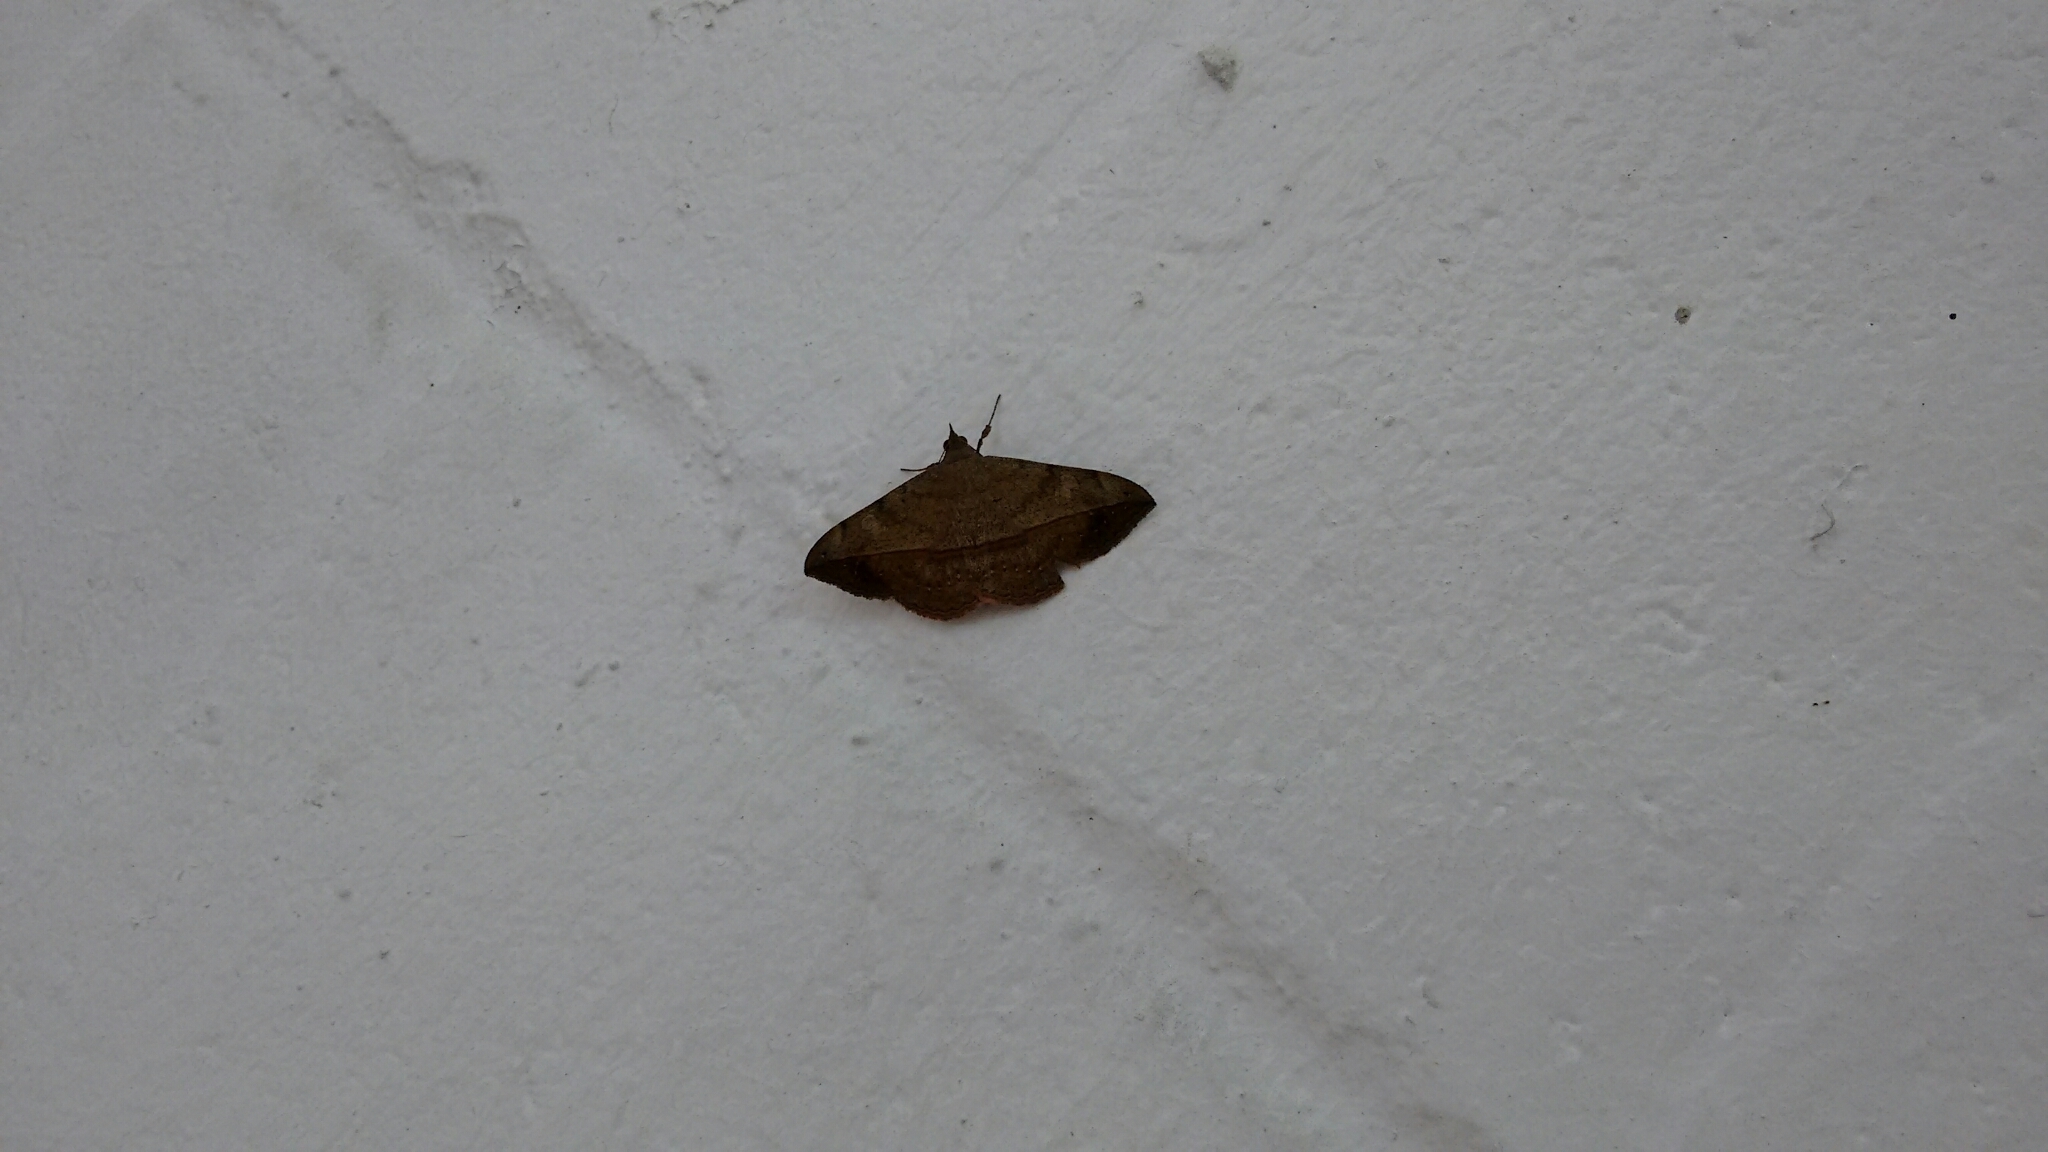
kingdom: Animalia
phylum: Arthropoda
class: Insecta
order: Lepidoptera
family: Erebidae
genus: Anticarsia
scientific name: Anticarsia gemmatalis
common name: Cutworm moth
